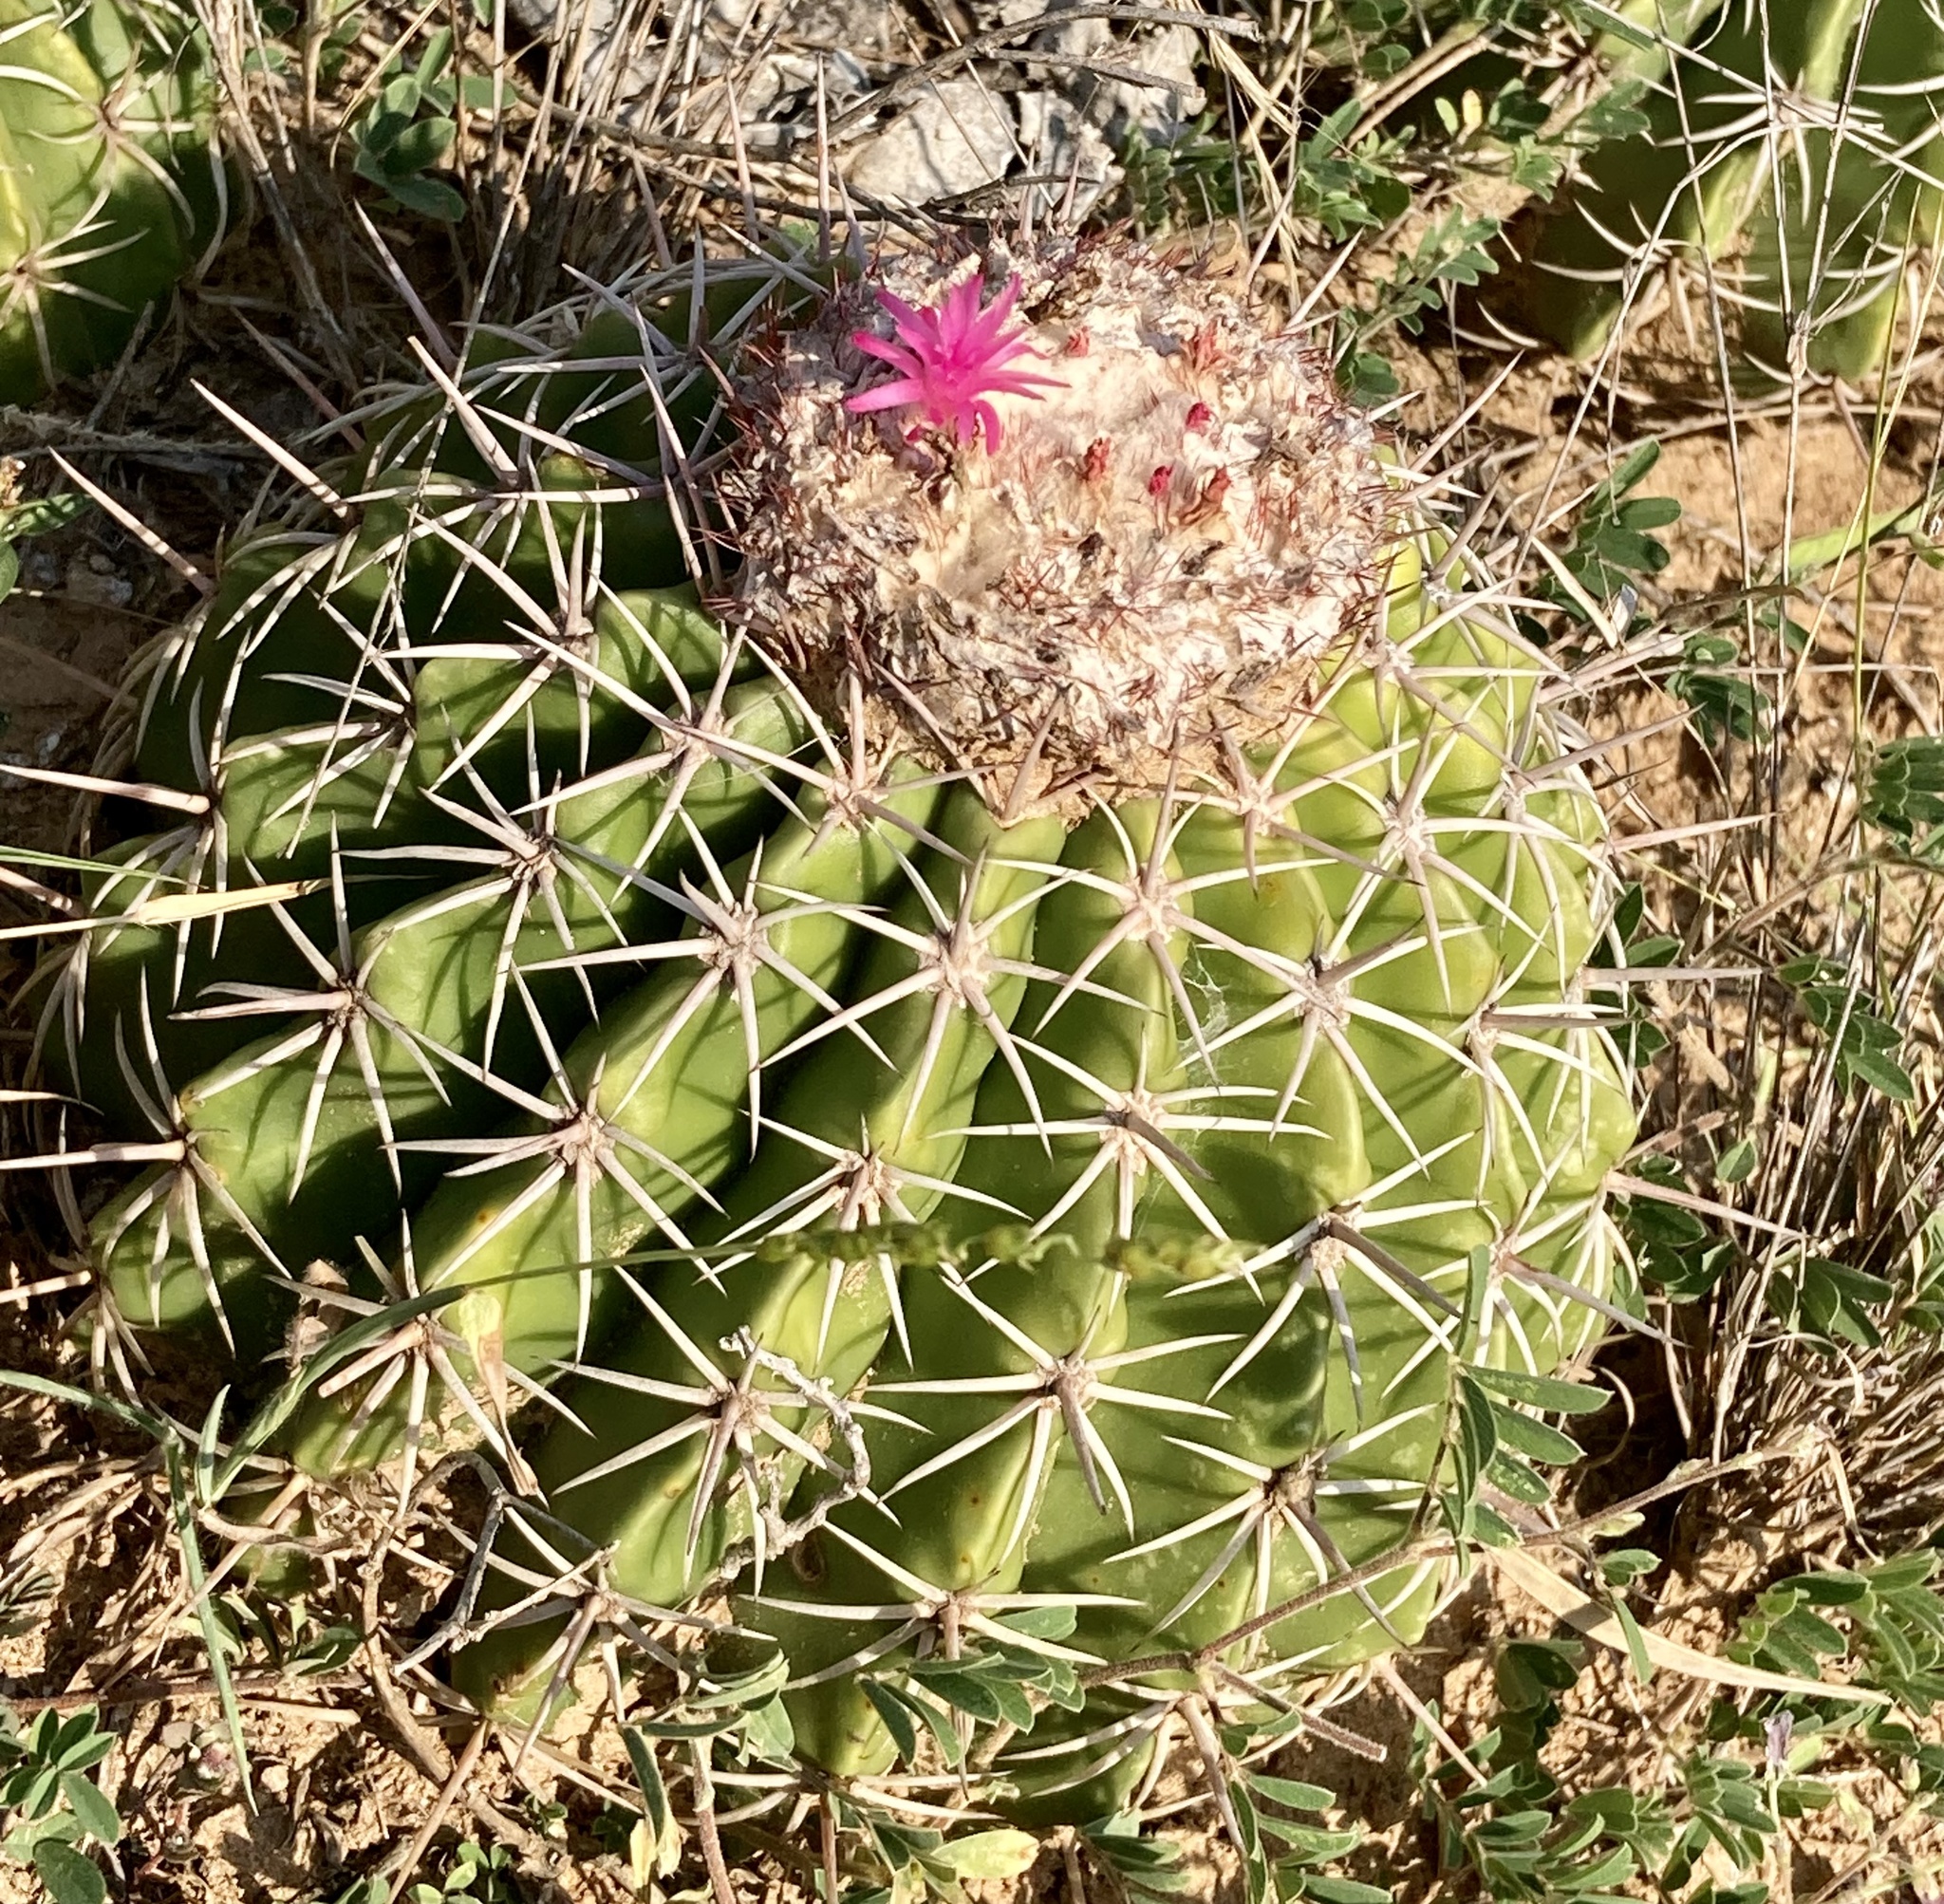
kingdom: Plantae
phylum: Tracheophyta
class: Magnoliopsida
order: Caryophyllales
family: Cactaceae
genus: Melocactus
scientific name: Melocactus curvispinus
